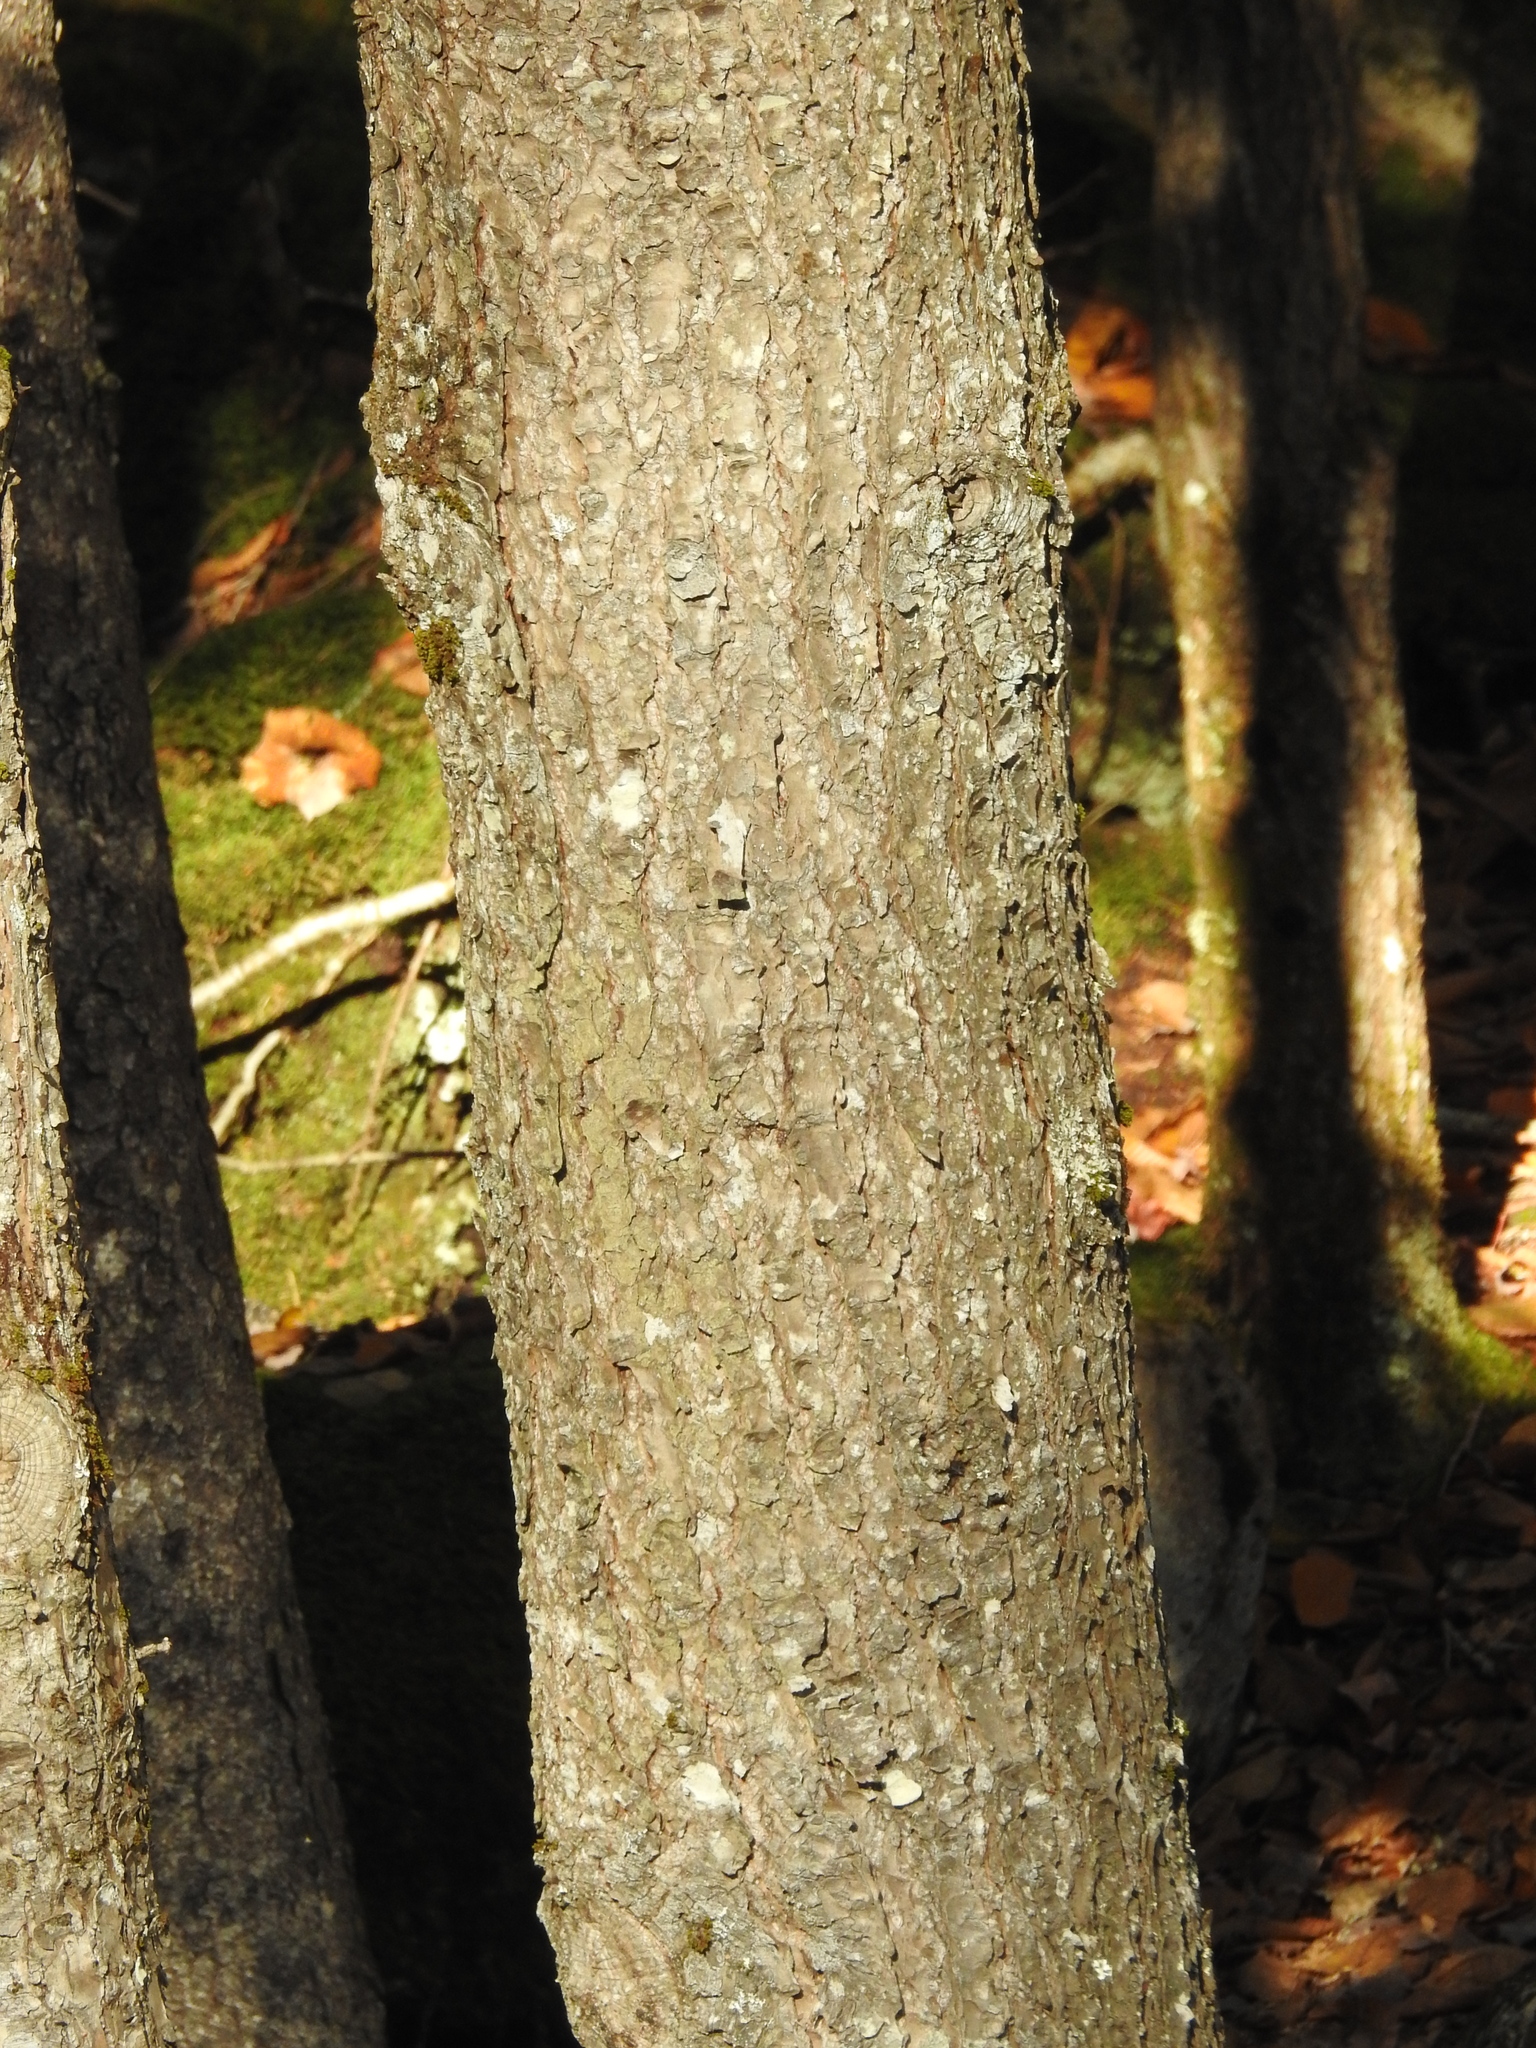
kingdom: Plantae
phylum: Tracheophyta
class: Pinopsida
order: Pinales
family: Pinaceae
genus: Tsuga
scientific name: Tsuga canadensis
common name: Eastern hemlock
